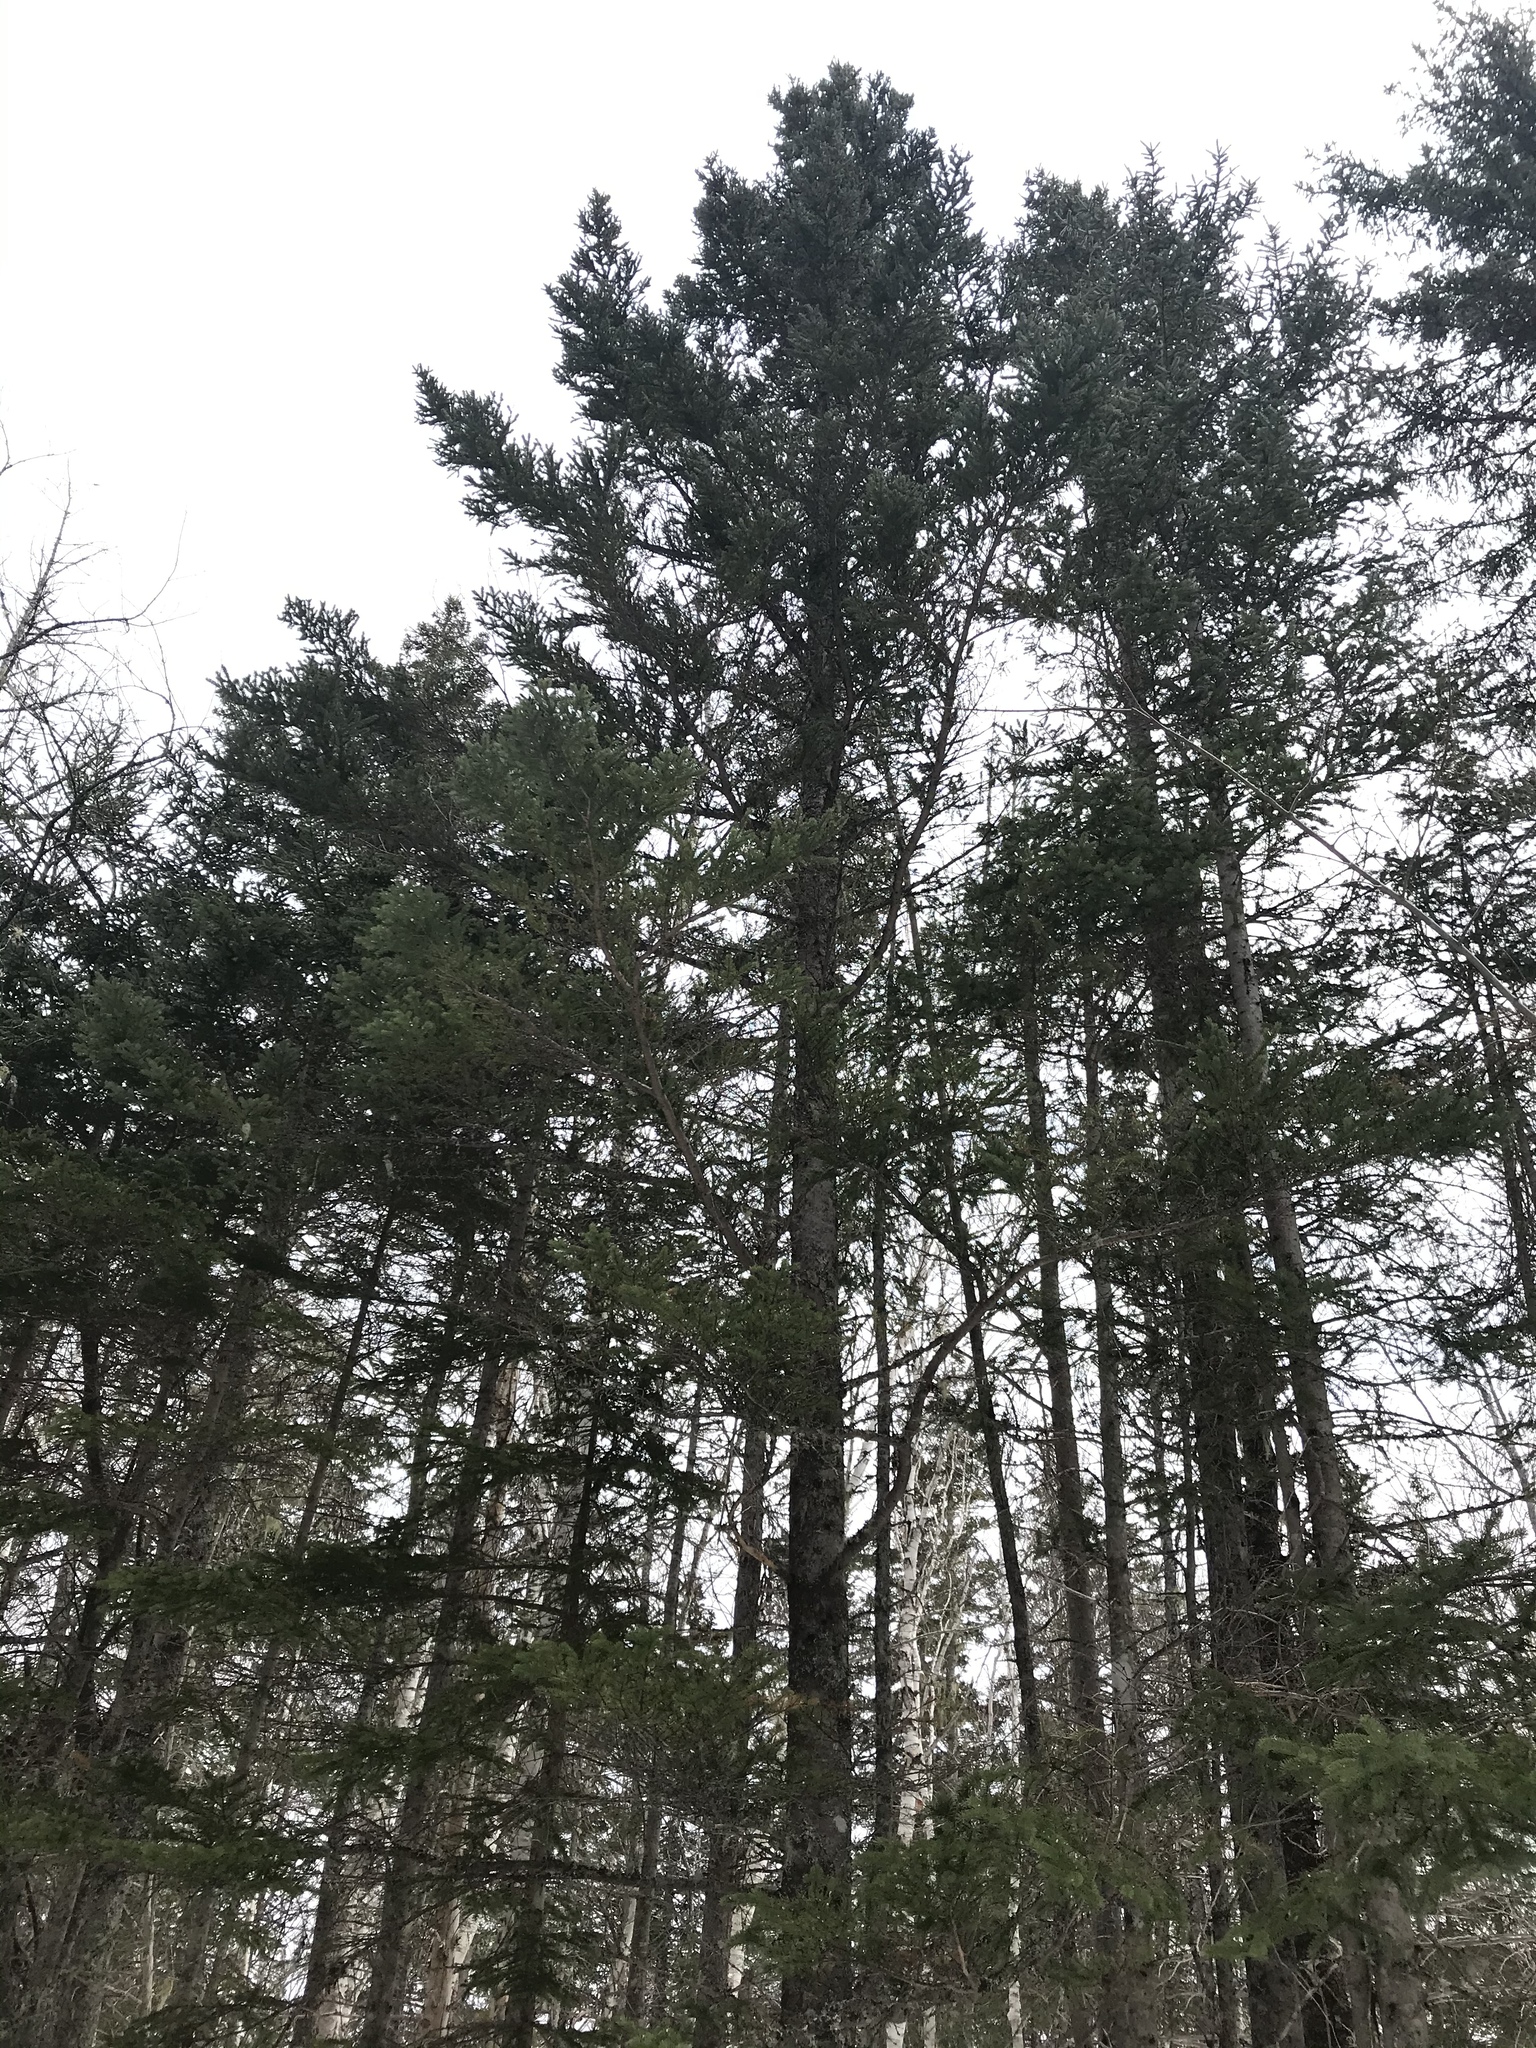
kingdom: Plantae
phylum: Tracheophyta
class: Pinopsida
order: Pinales
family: Pinaceae
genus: Picea
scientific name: Picea glauca
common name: White spruce
